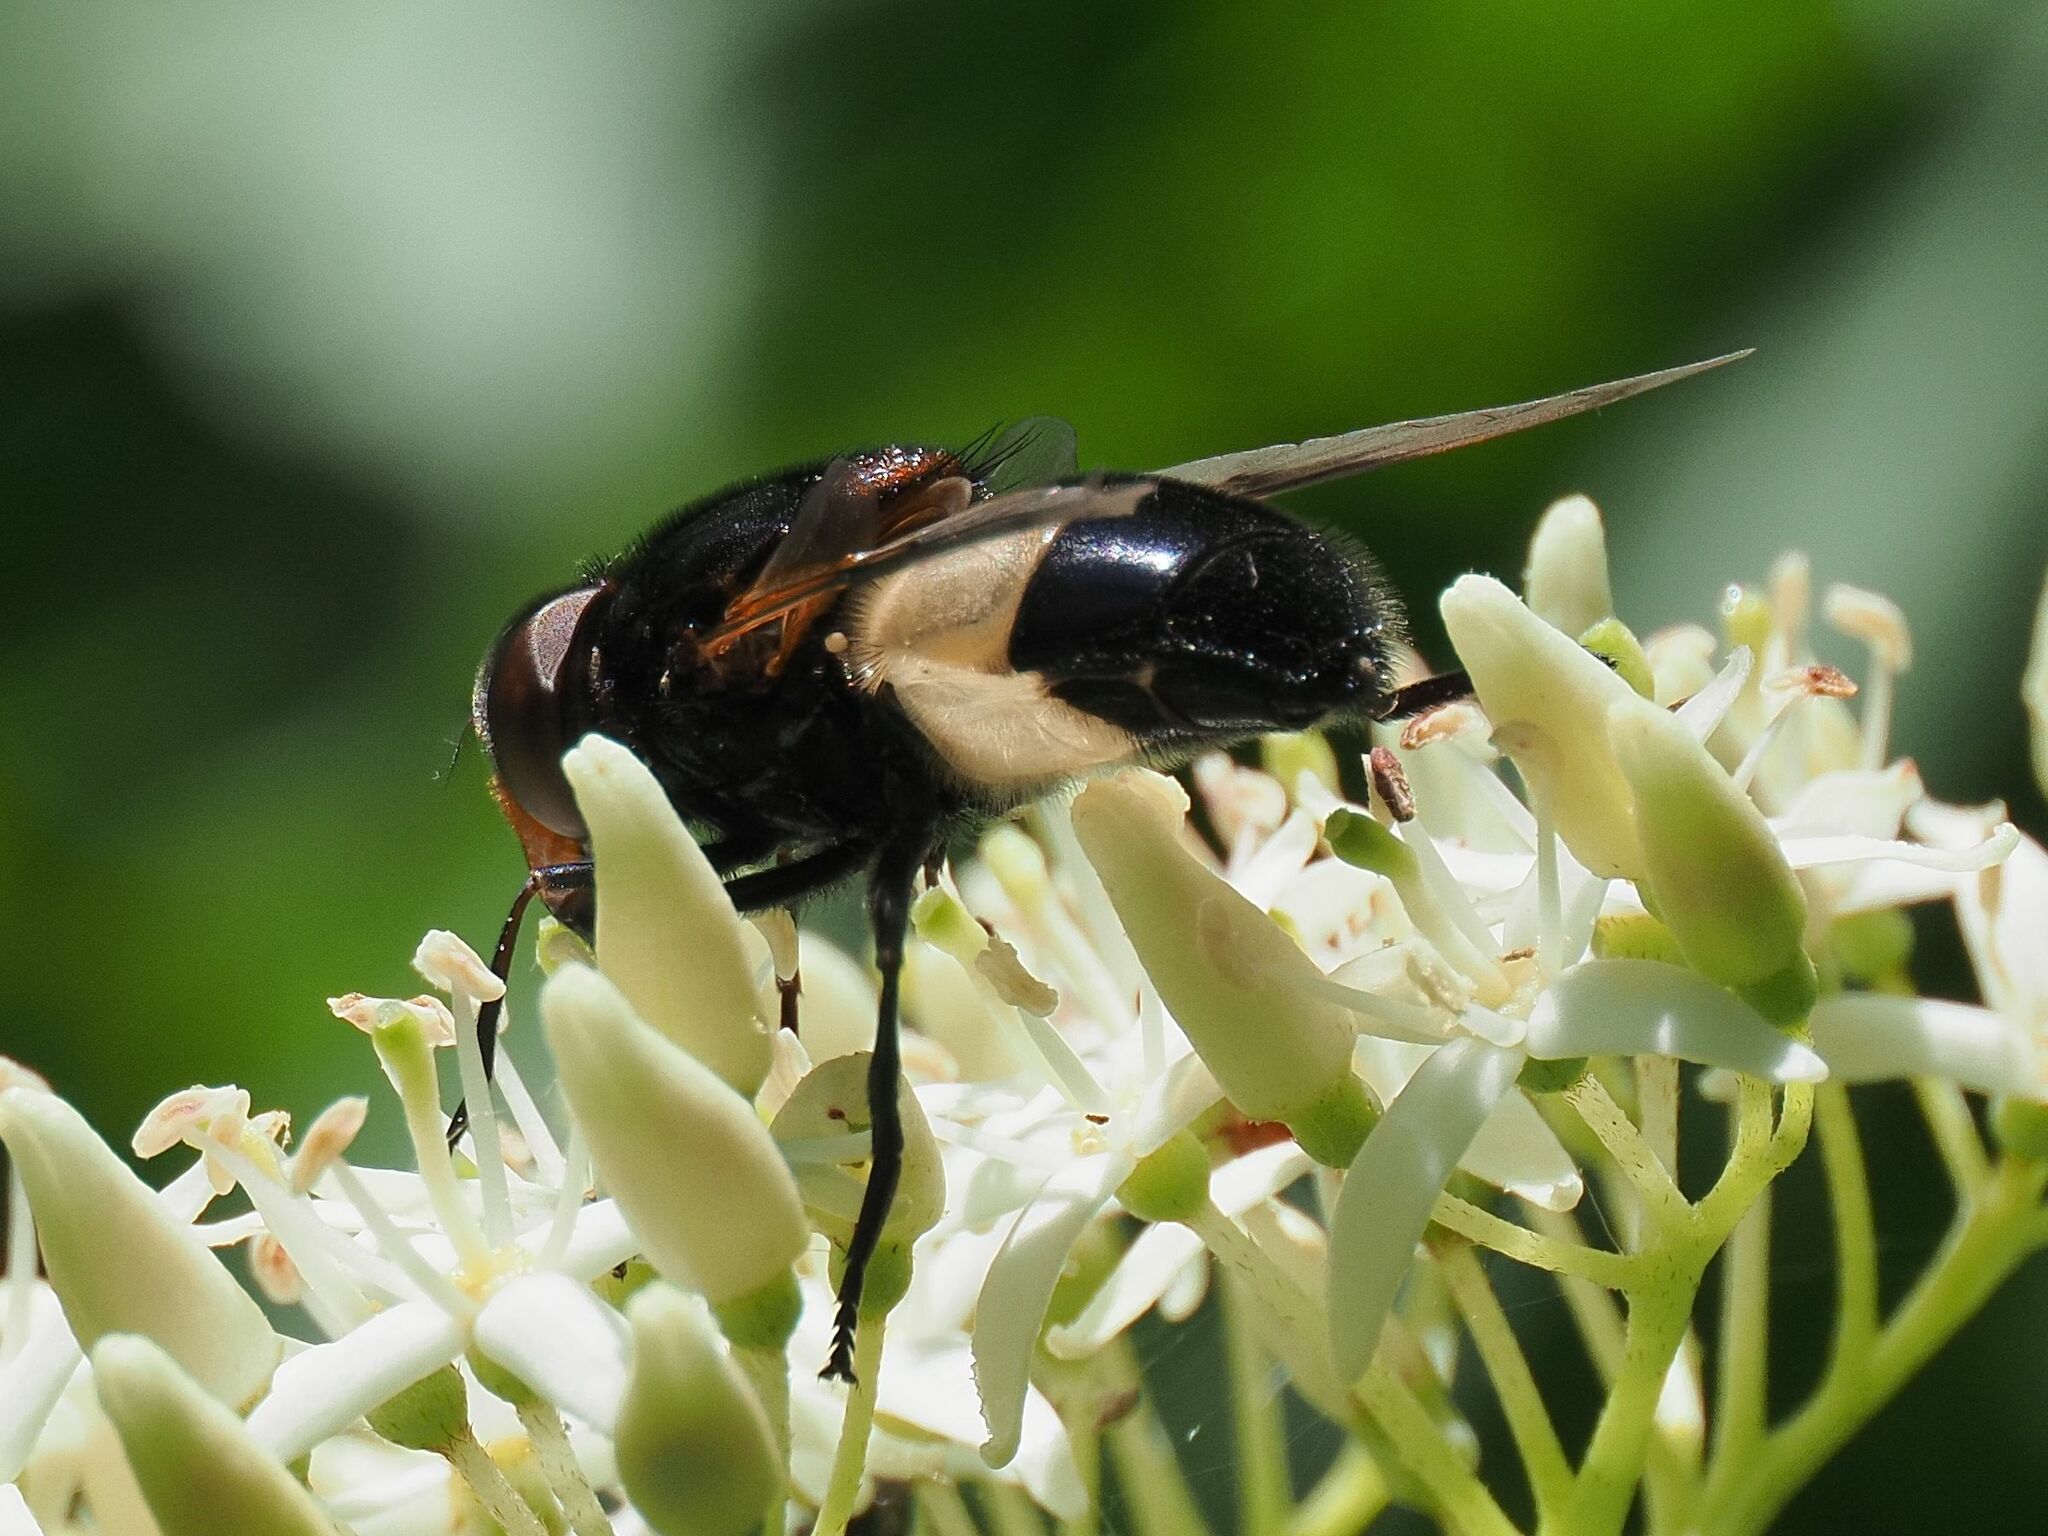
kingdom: Animalia
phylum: Arthropoda
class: Insecta
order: Diptera
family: Syrphidae
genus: Volucella
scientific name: Volucella pellucens
